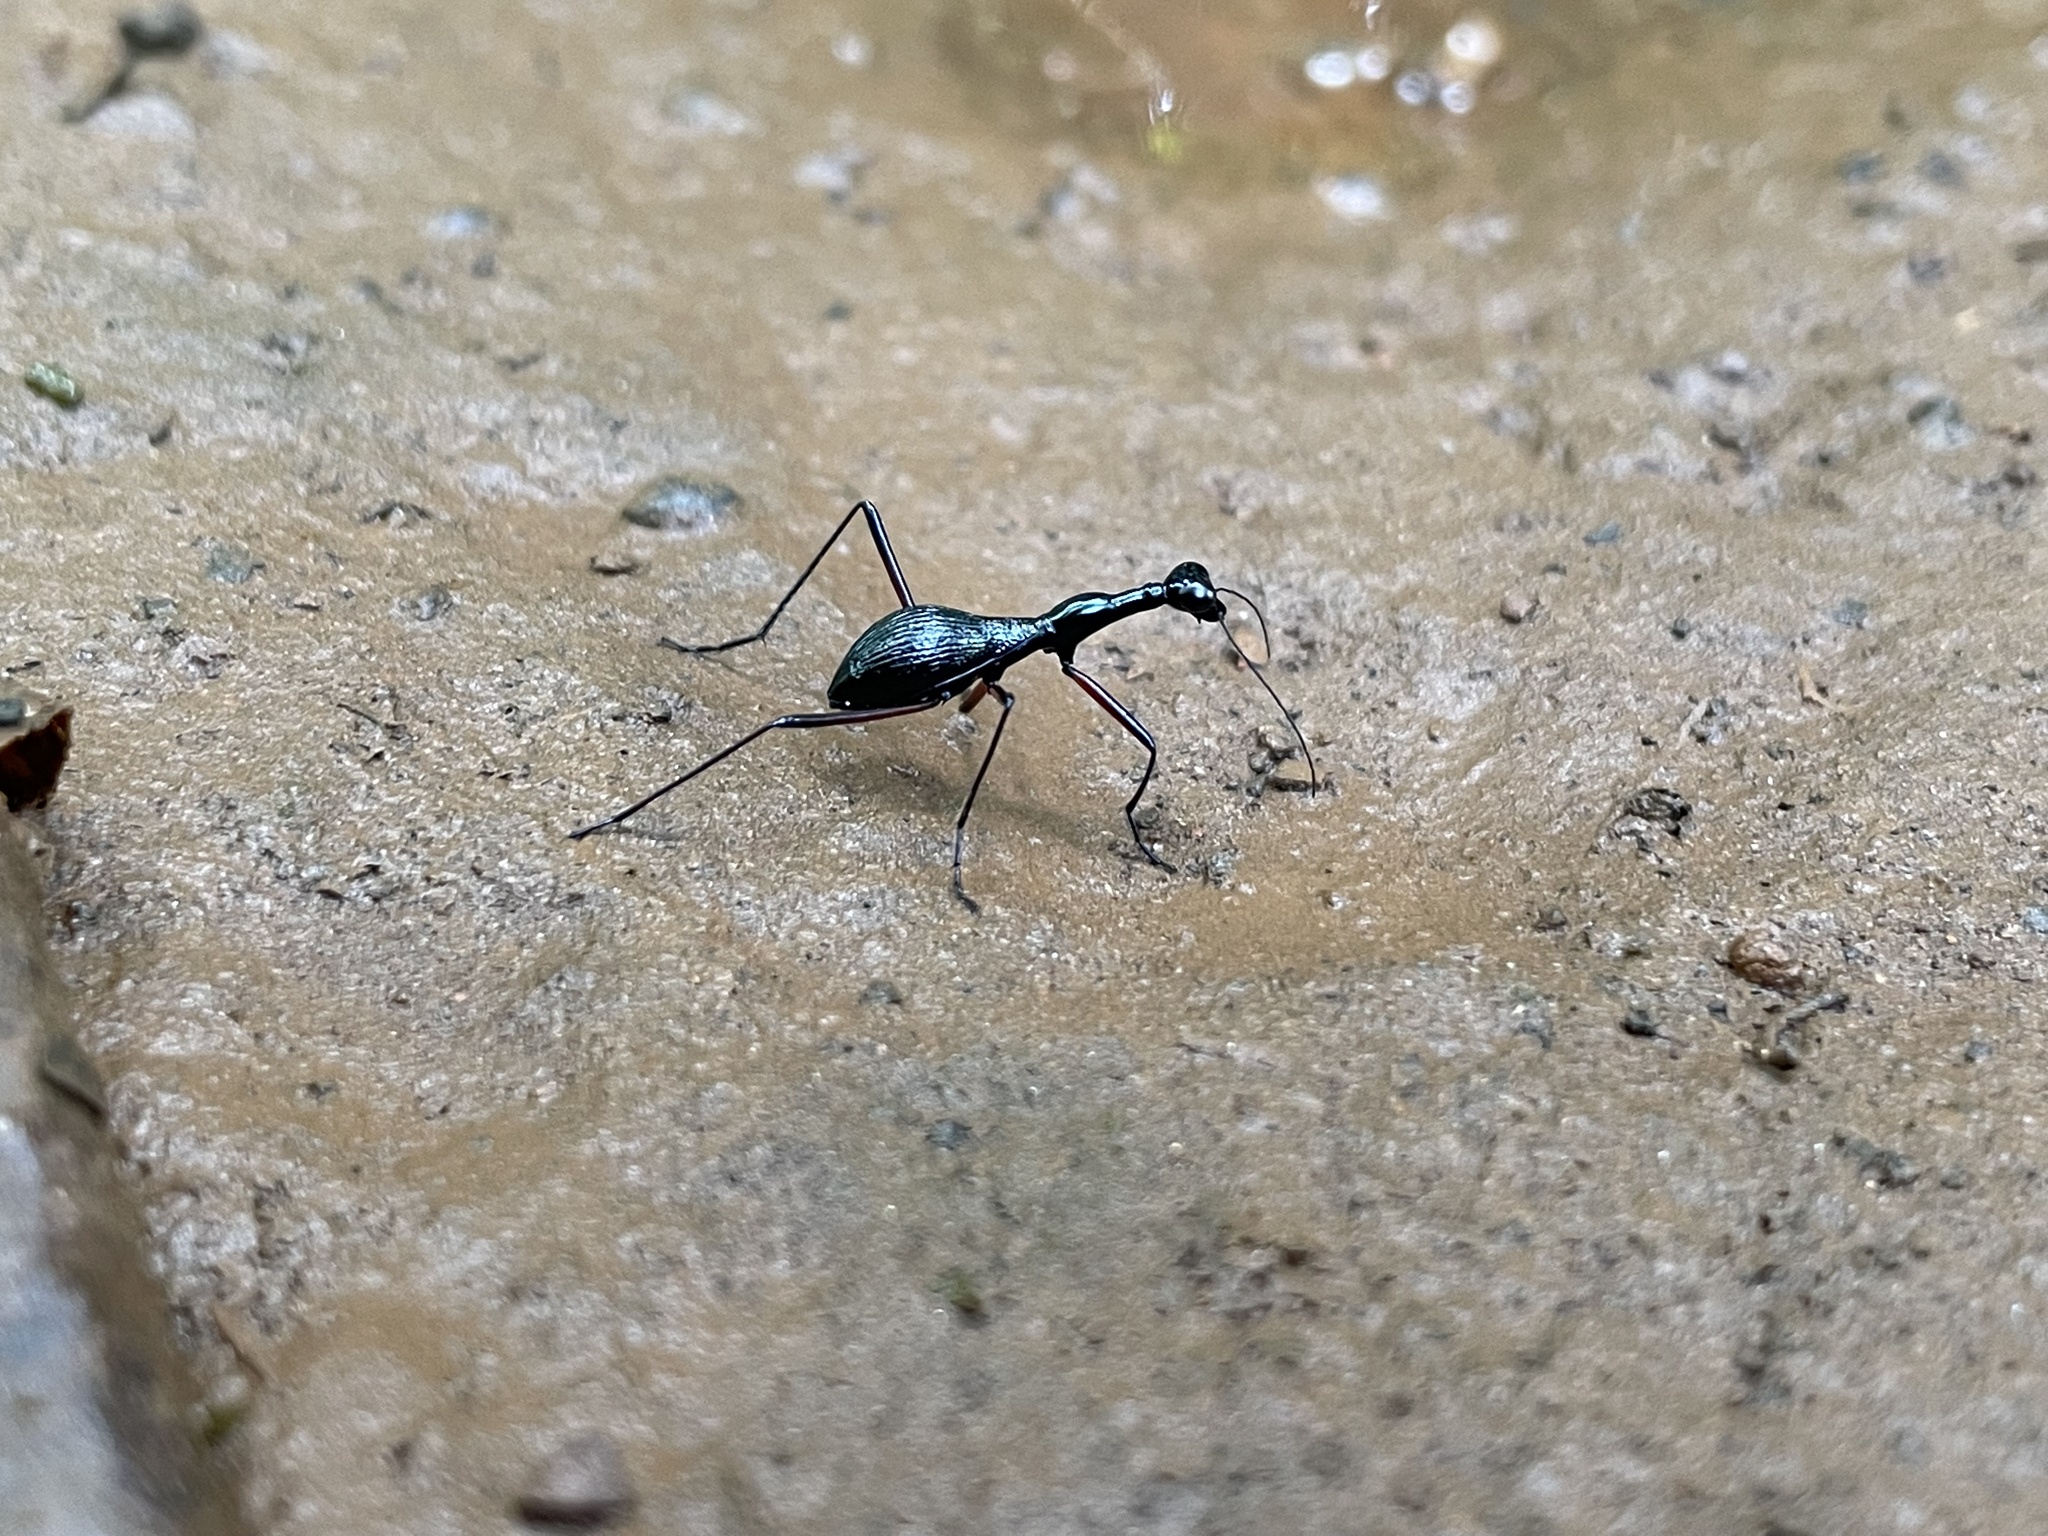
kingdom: Animalia
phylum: Arthropoda
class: Insecta
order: Coleoptera
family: Carabidae
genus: Derocrania
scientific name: Derocrania longesulcata
